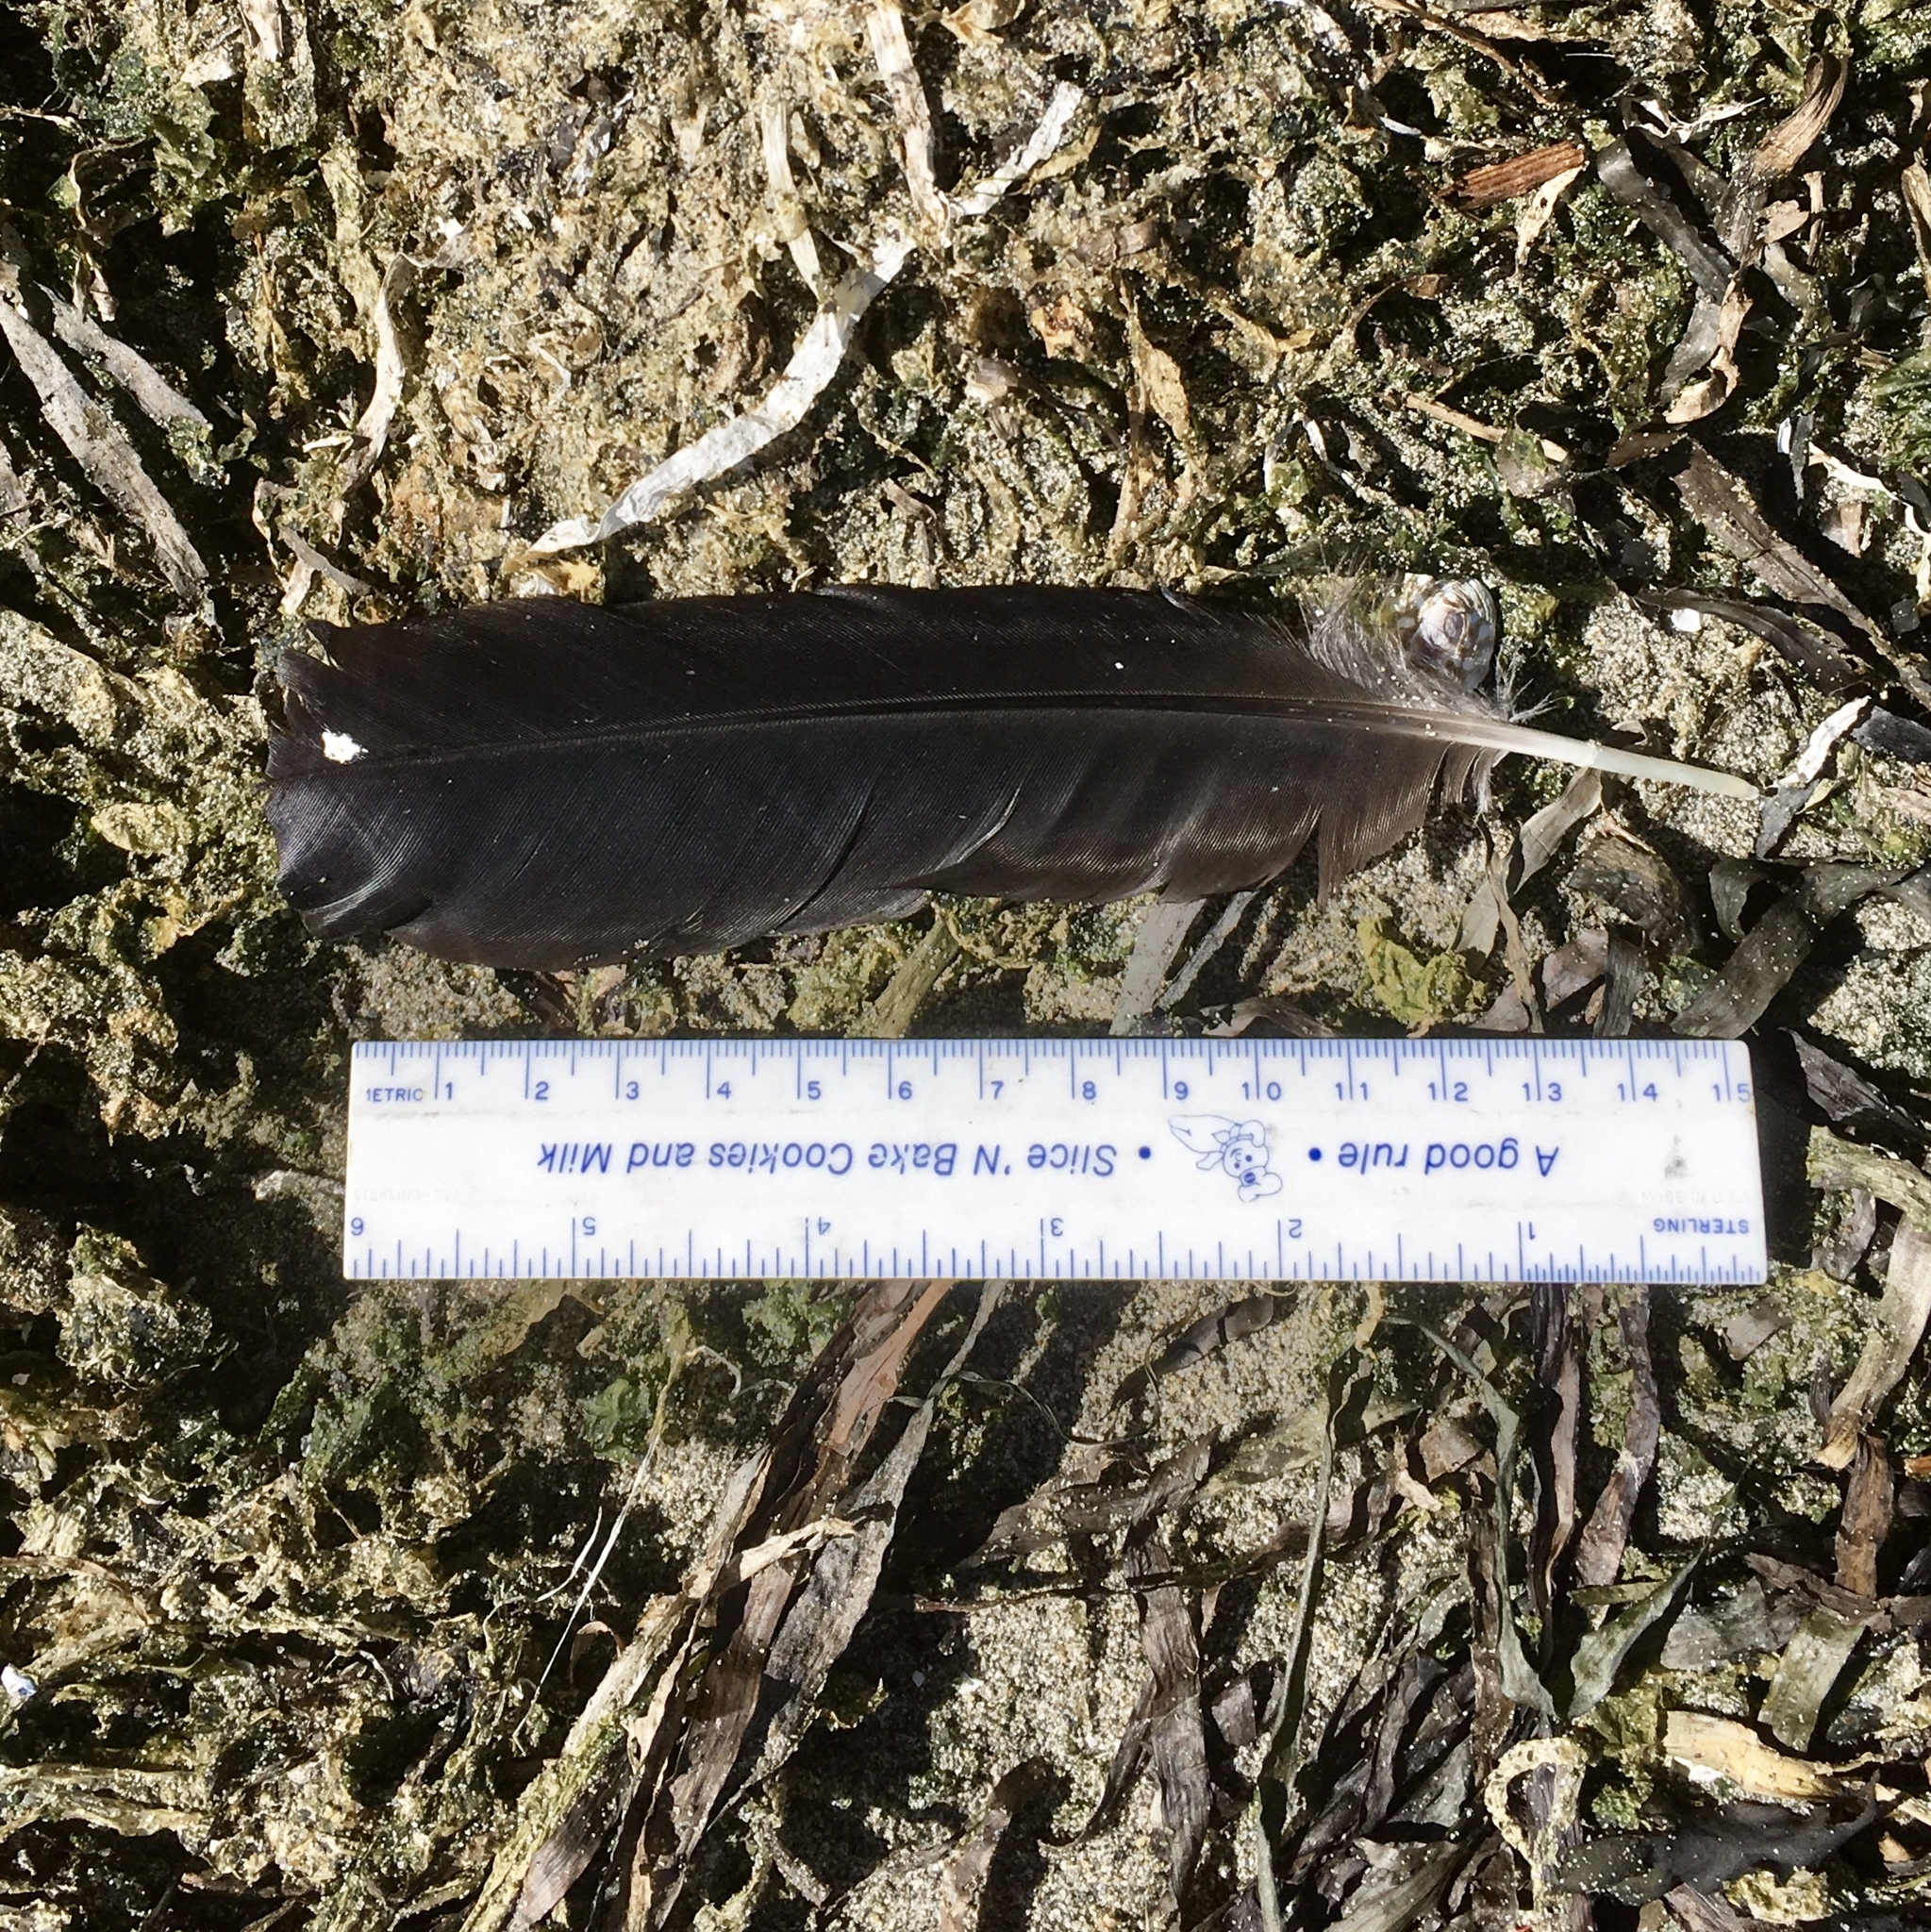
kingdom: Animalia
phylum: Chordata
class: Aves
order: Passeriformes
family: Corvidae
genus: Corvus
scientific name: Corvus brachyrhynchos
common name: American crow
